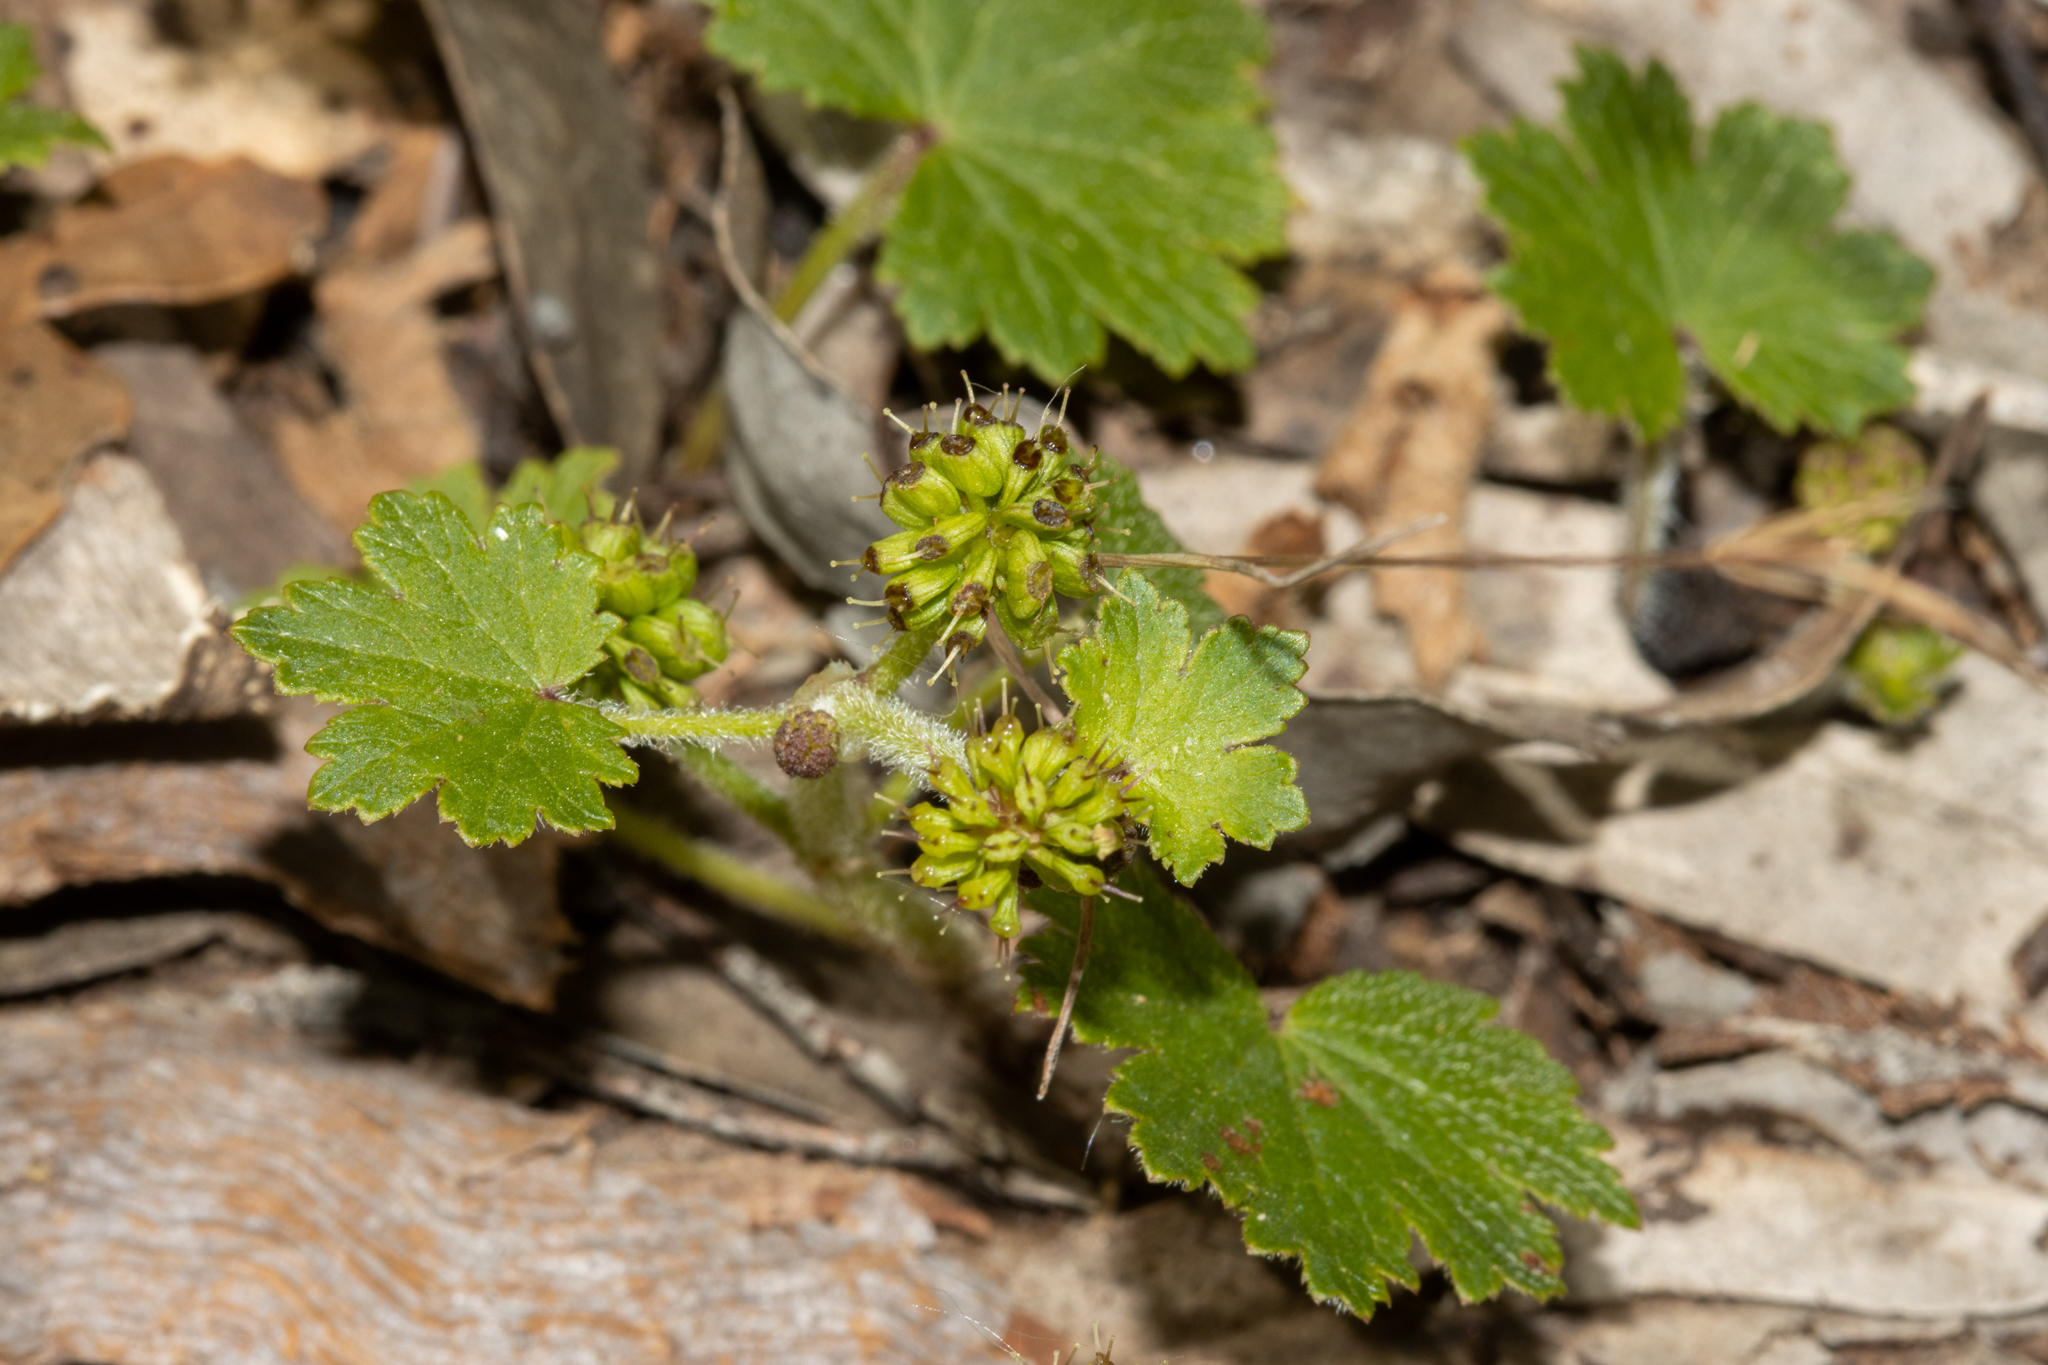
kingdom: Plantae
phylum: Tracheophyta
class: Magnoliopsida
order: Apiales
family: Araliaceae
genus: Hydrocotyle
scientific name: Hydrocotyle laxiflora
